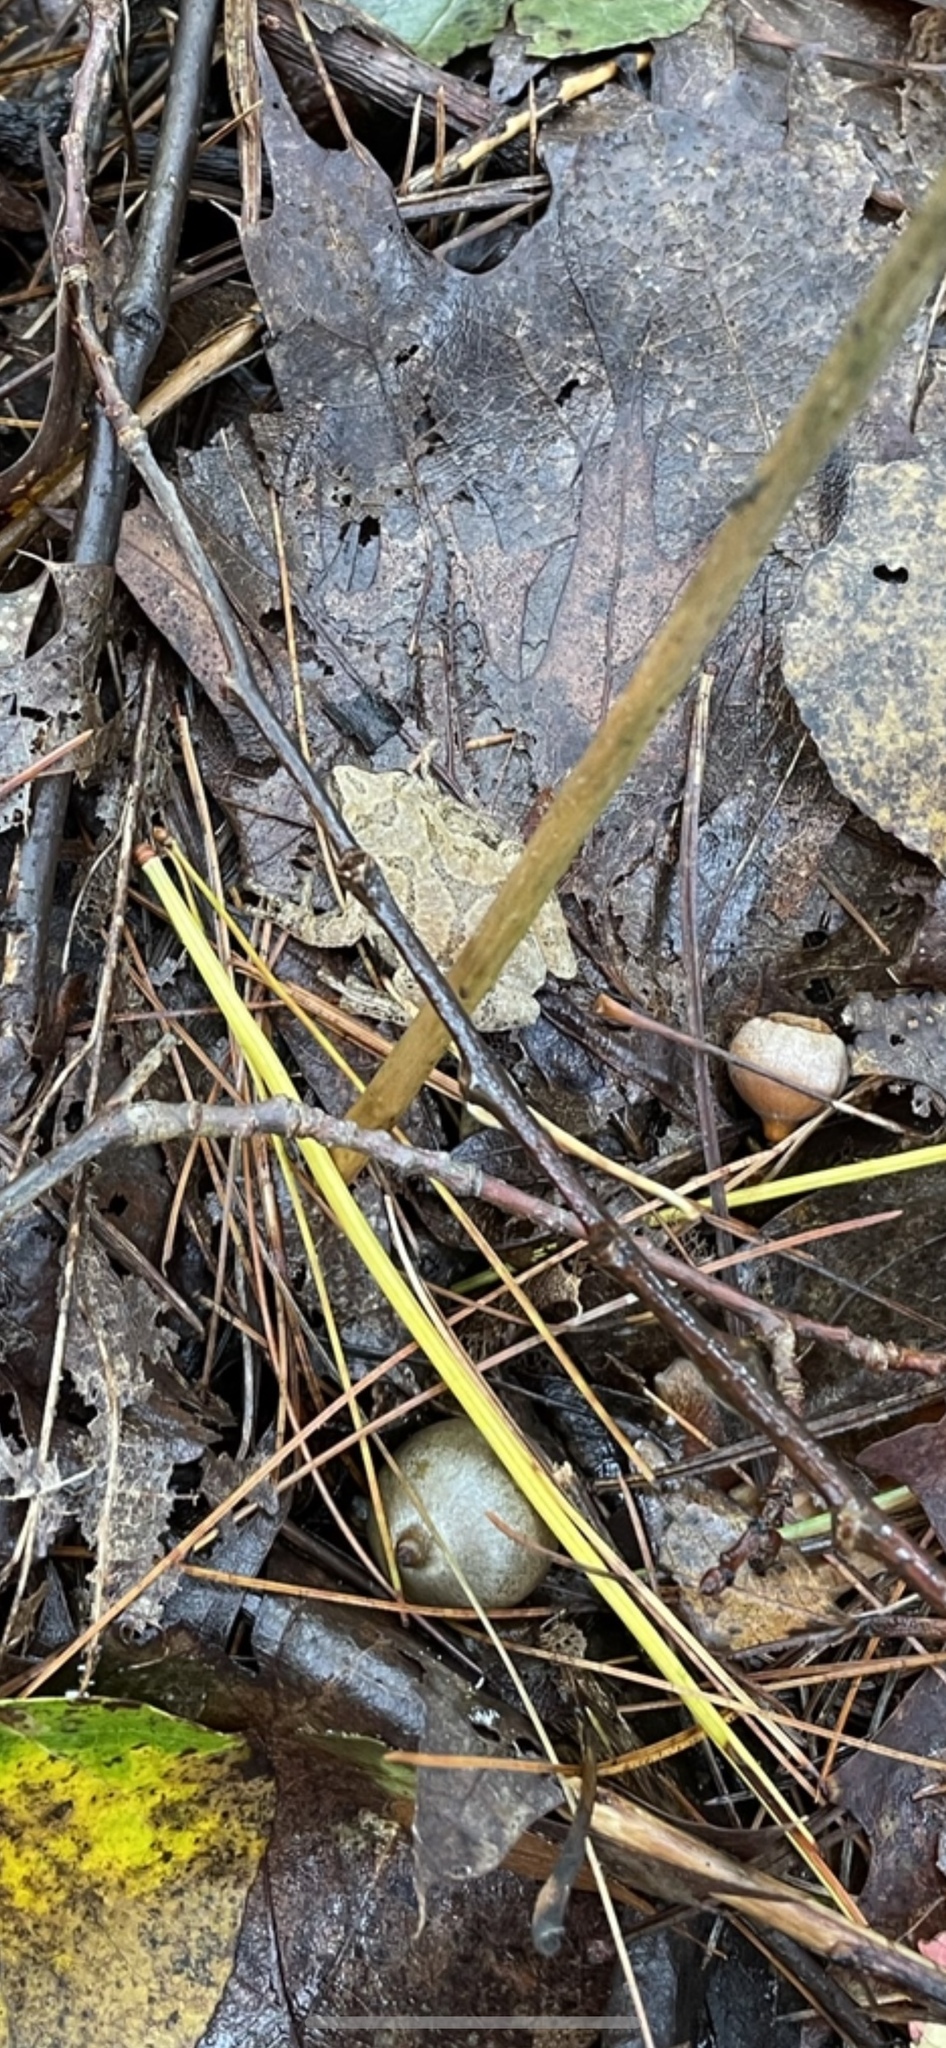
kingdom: Animalia
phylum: Chordata
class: Amphibia
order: Anura
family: Hylidae
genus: Pseudacris
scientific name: Pseudacris crucifer
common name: Spring peeper
